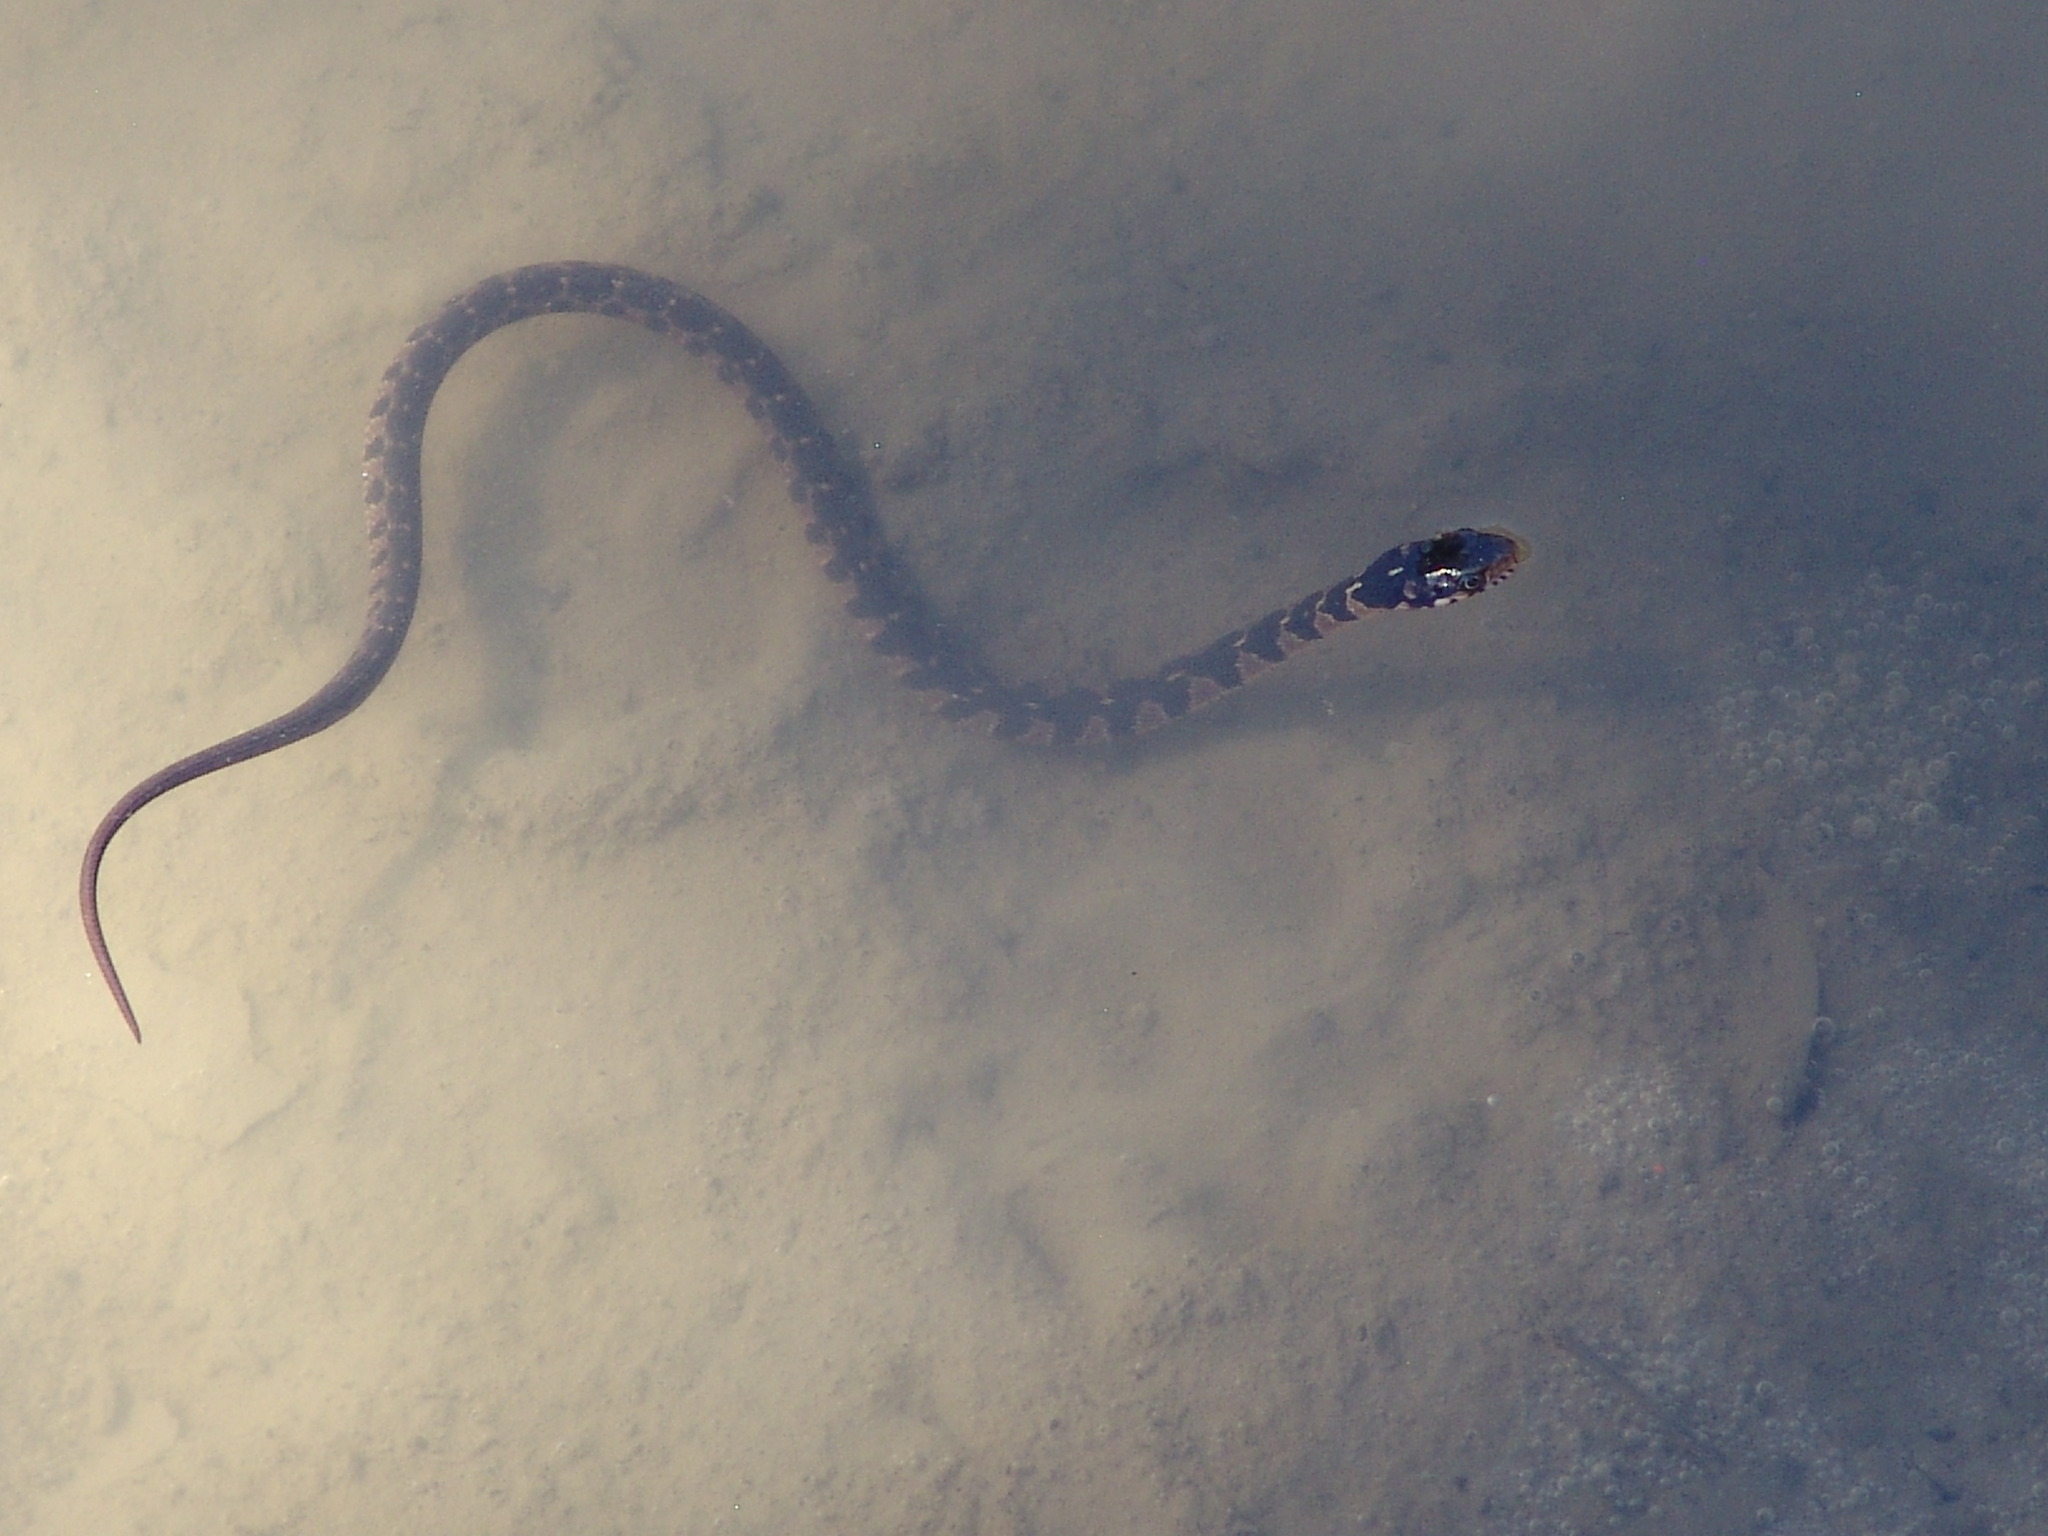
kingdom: Animalia
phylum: Chordata
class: Squamata
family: Colubridae
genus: Nerodia
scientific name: Nerodia erythrogaster
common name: Plainbelly water snake
